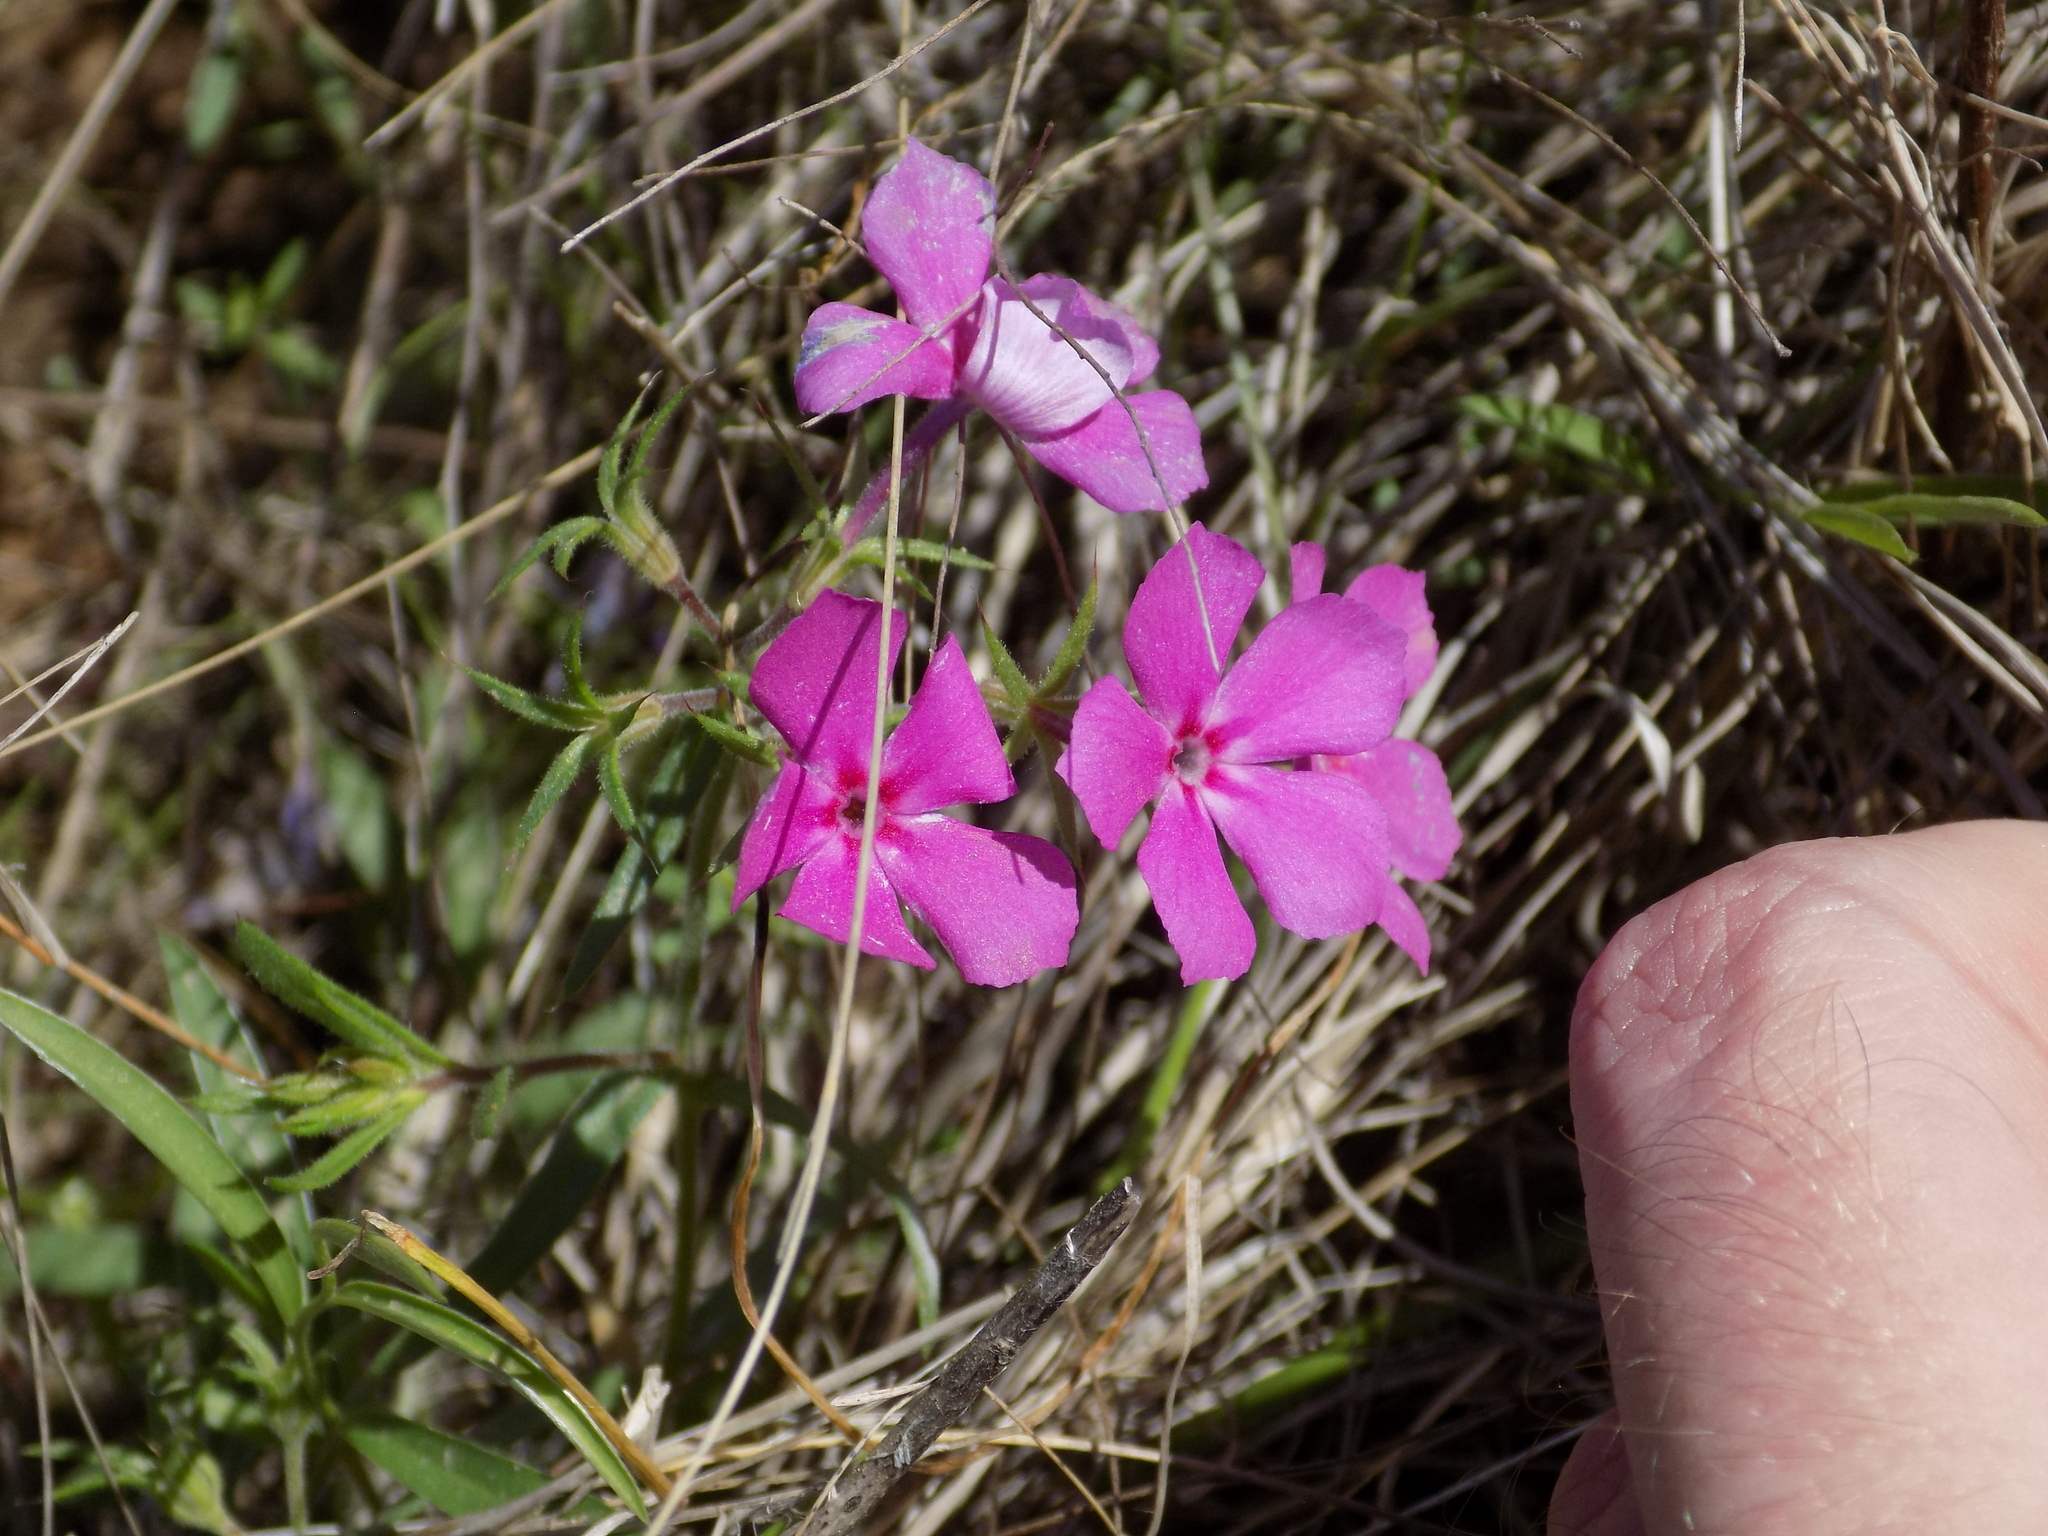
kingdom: Plantae
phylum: Tracheophyta
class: Magnoliopsida
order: Ericales
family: Polemoniaceae
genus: Phlox
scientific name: Phlox cuspidata
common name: Pointed phlox
